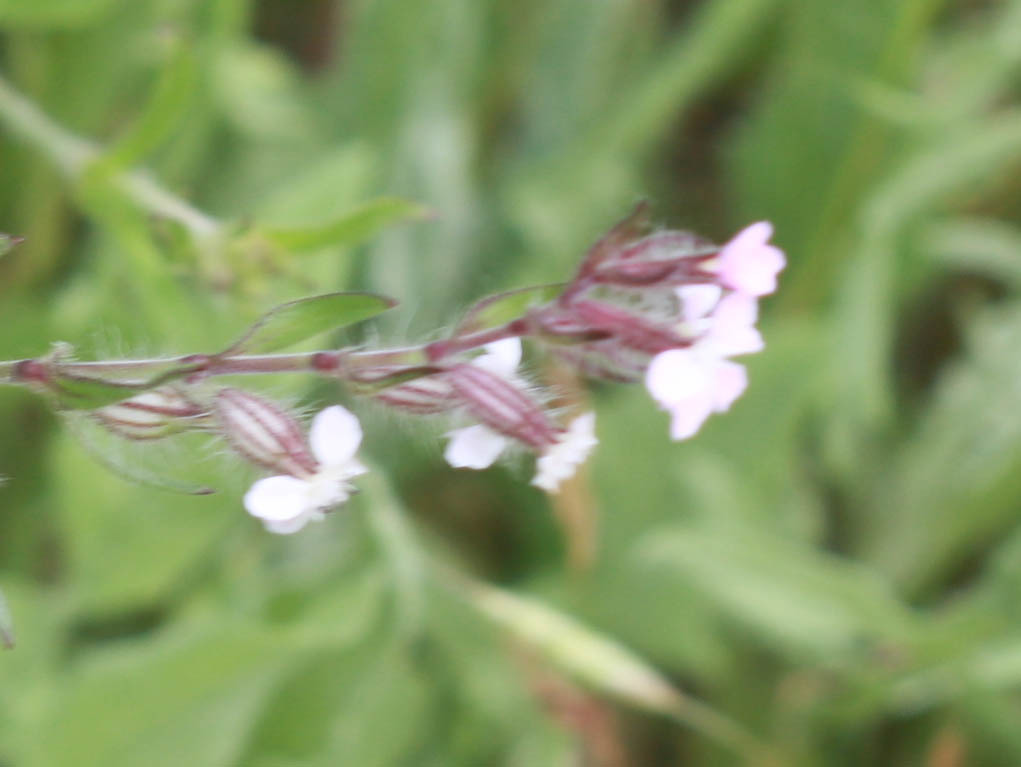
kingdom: Plantae
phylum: Tracheophyta
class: Magnoliopsida
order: Caryophyllales
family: Caryophyllaceae
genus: Silene
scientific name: Silene gallica
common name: Small-flowered catchfly
